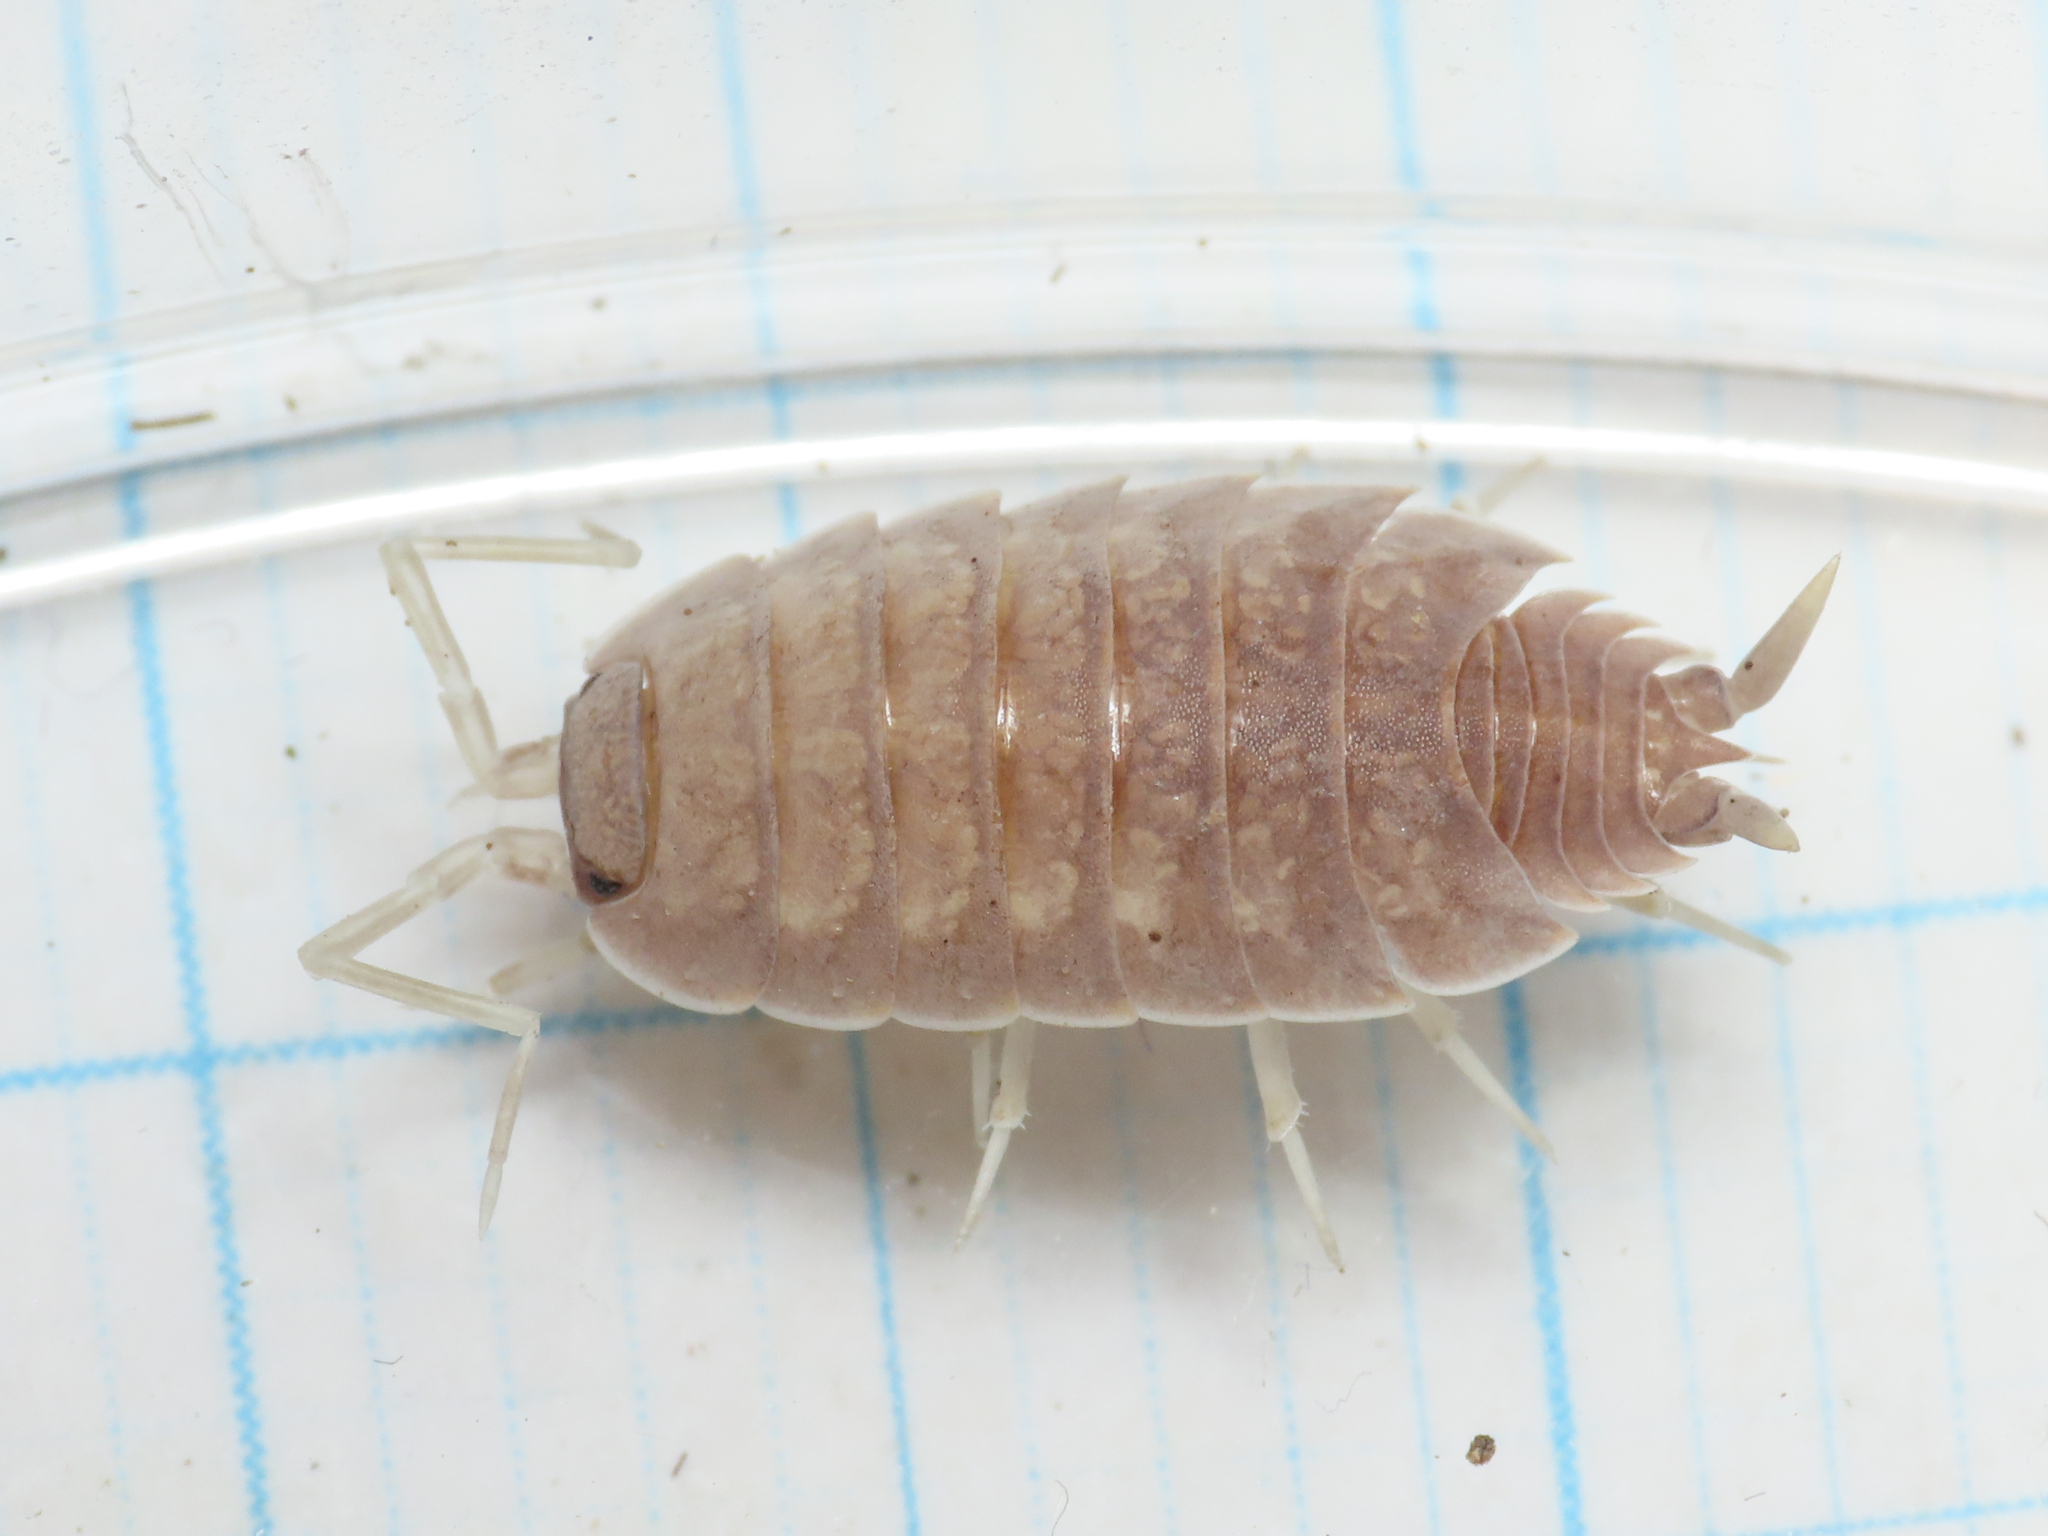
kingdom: Animalia
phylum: Arthropoda
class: Malacostraca
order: Isopoda
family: Porcellionidae
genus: Porcellionides
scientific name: Porcellionides myrmecophilus
